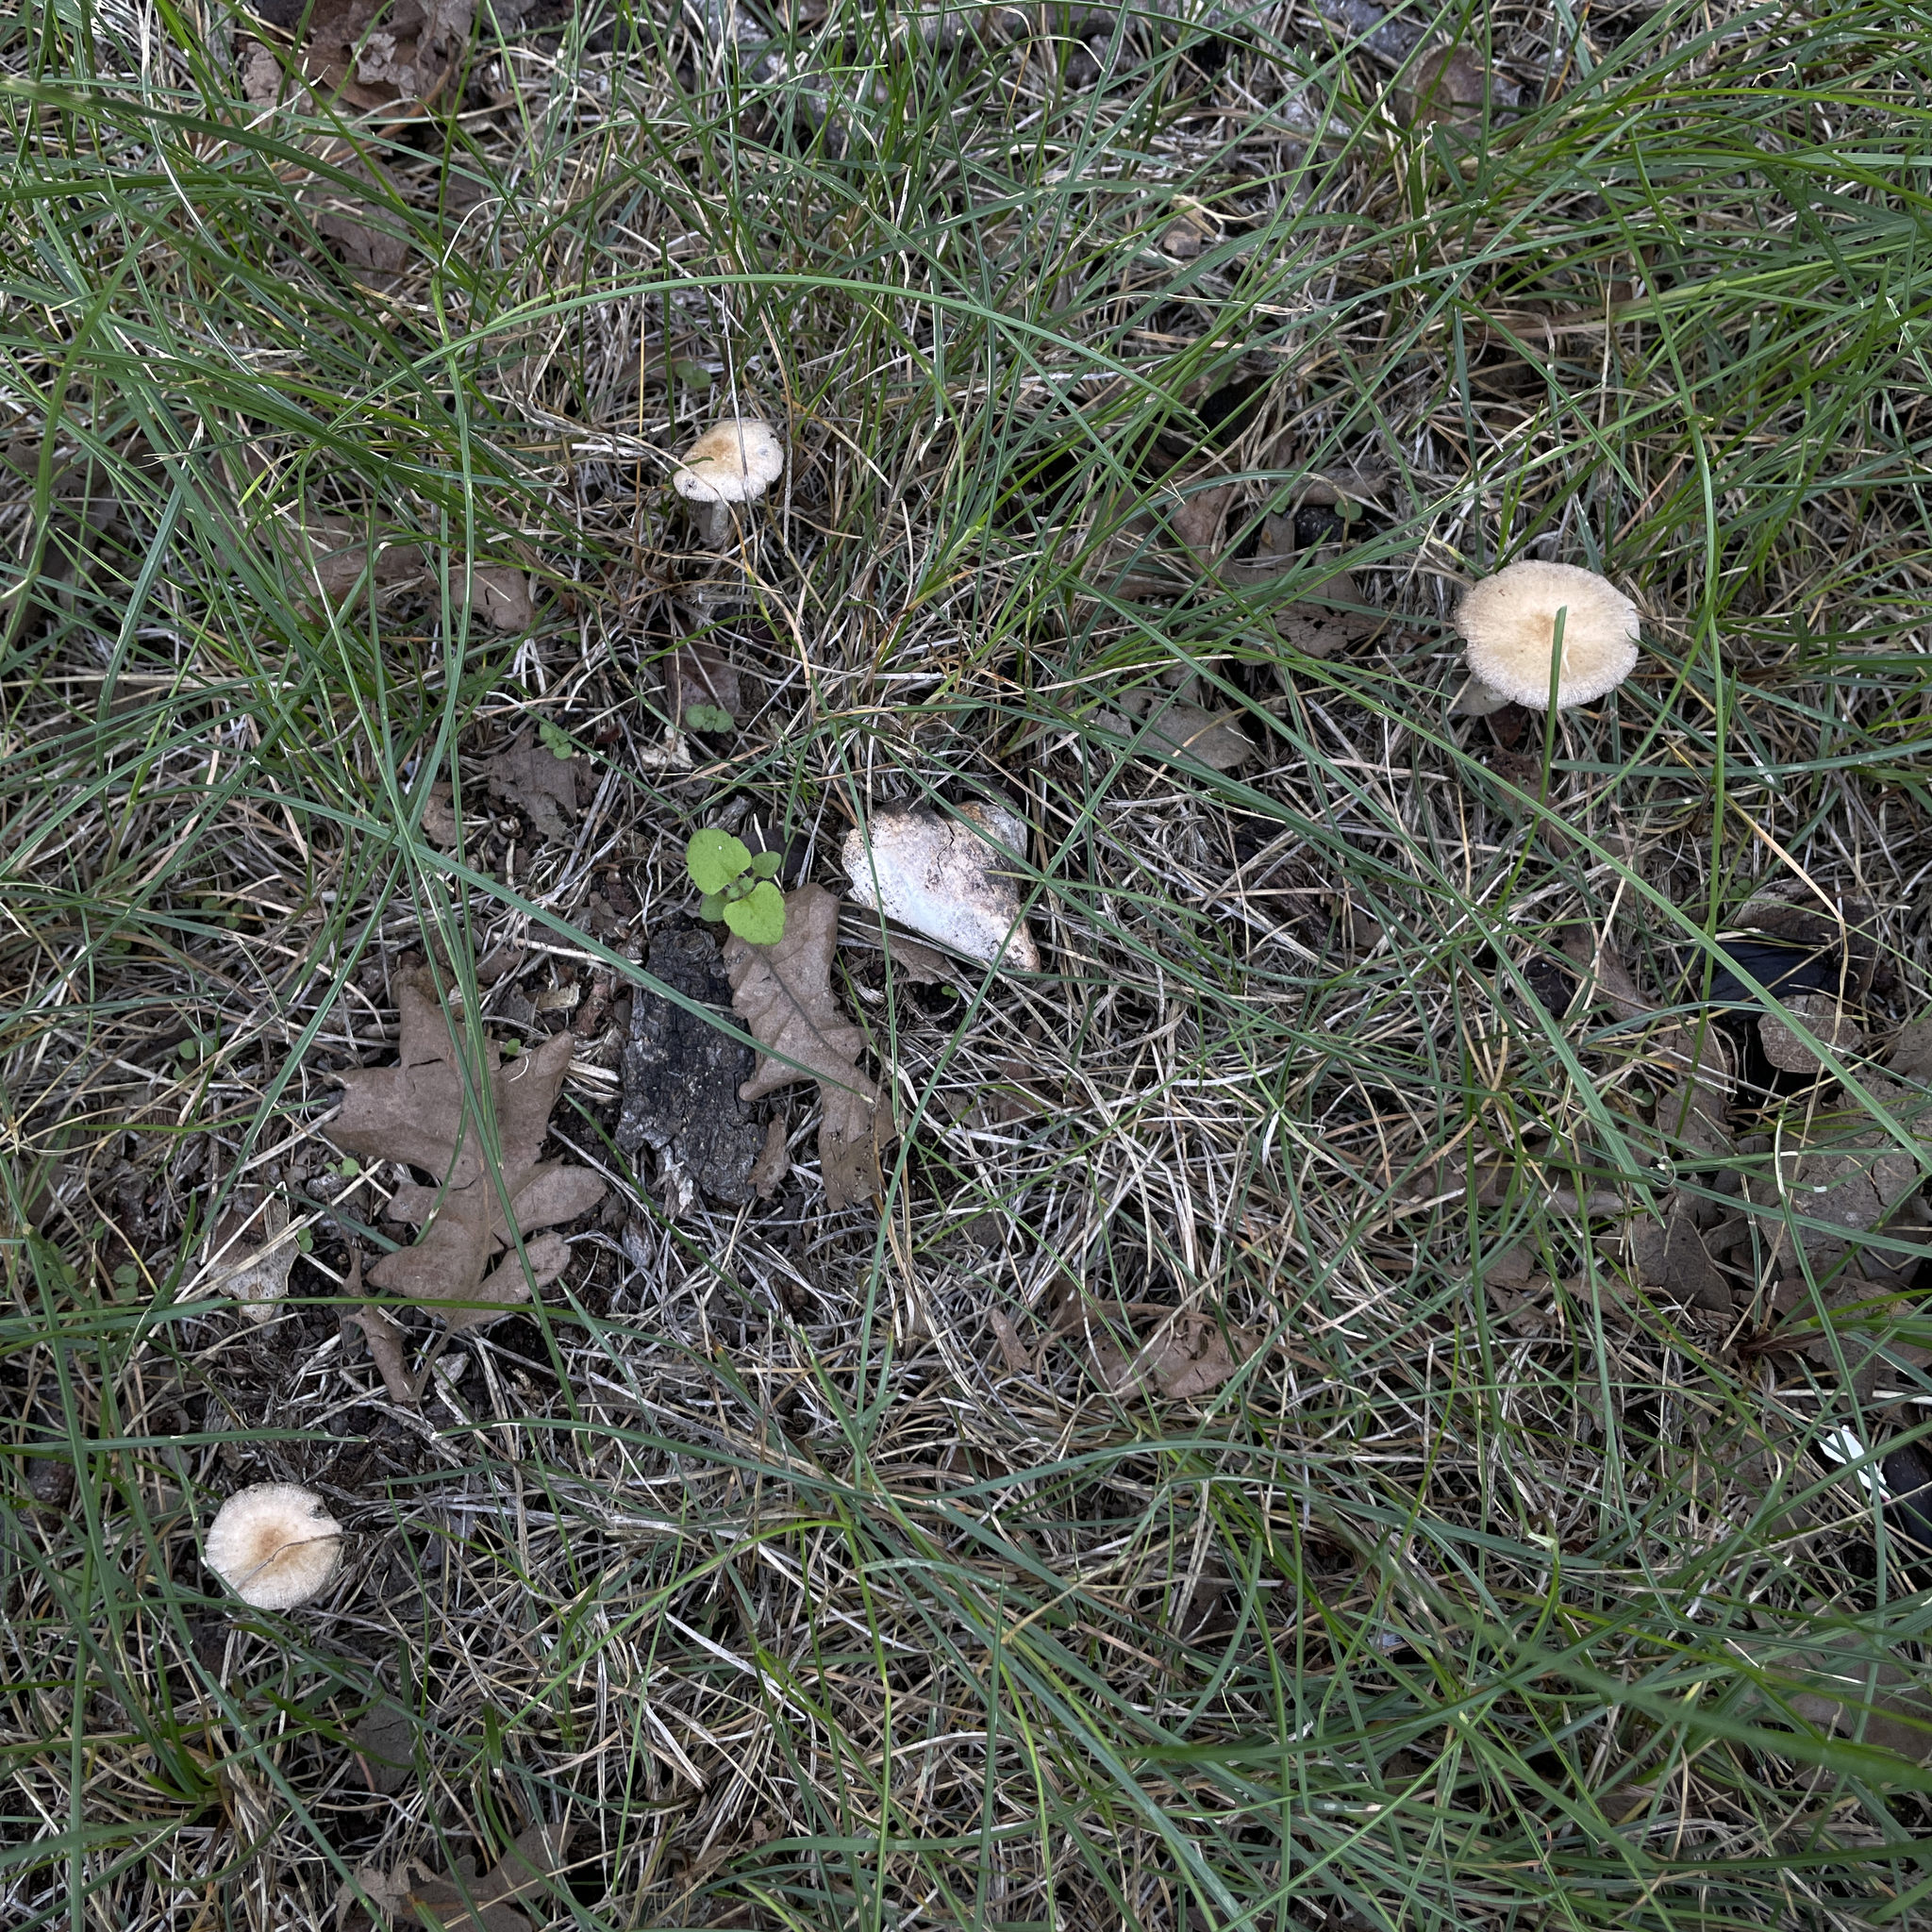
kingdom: Fungi
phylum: Basidiomycota
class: Agaricomycetes
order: Agaricales
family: Psathyrellaceae
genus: Candolleomyces
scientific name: Candolleomyces candolleanus
